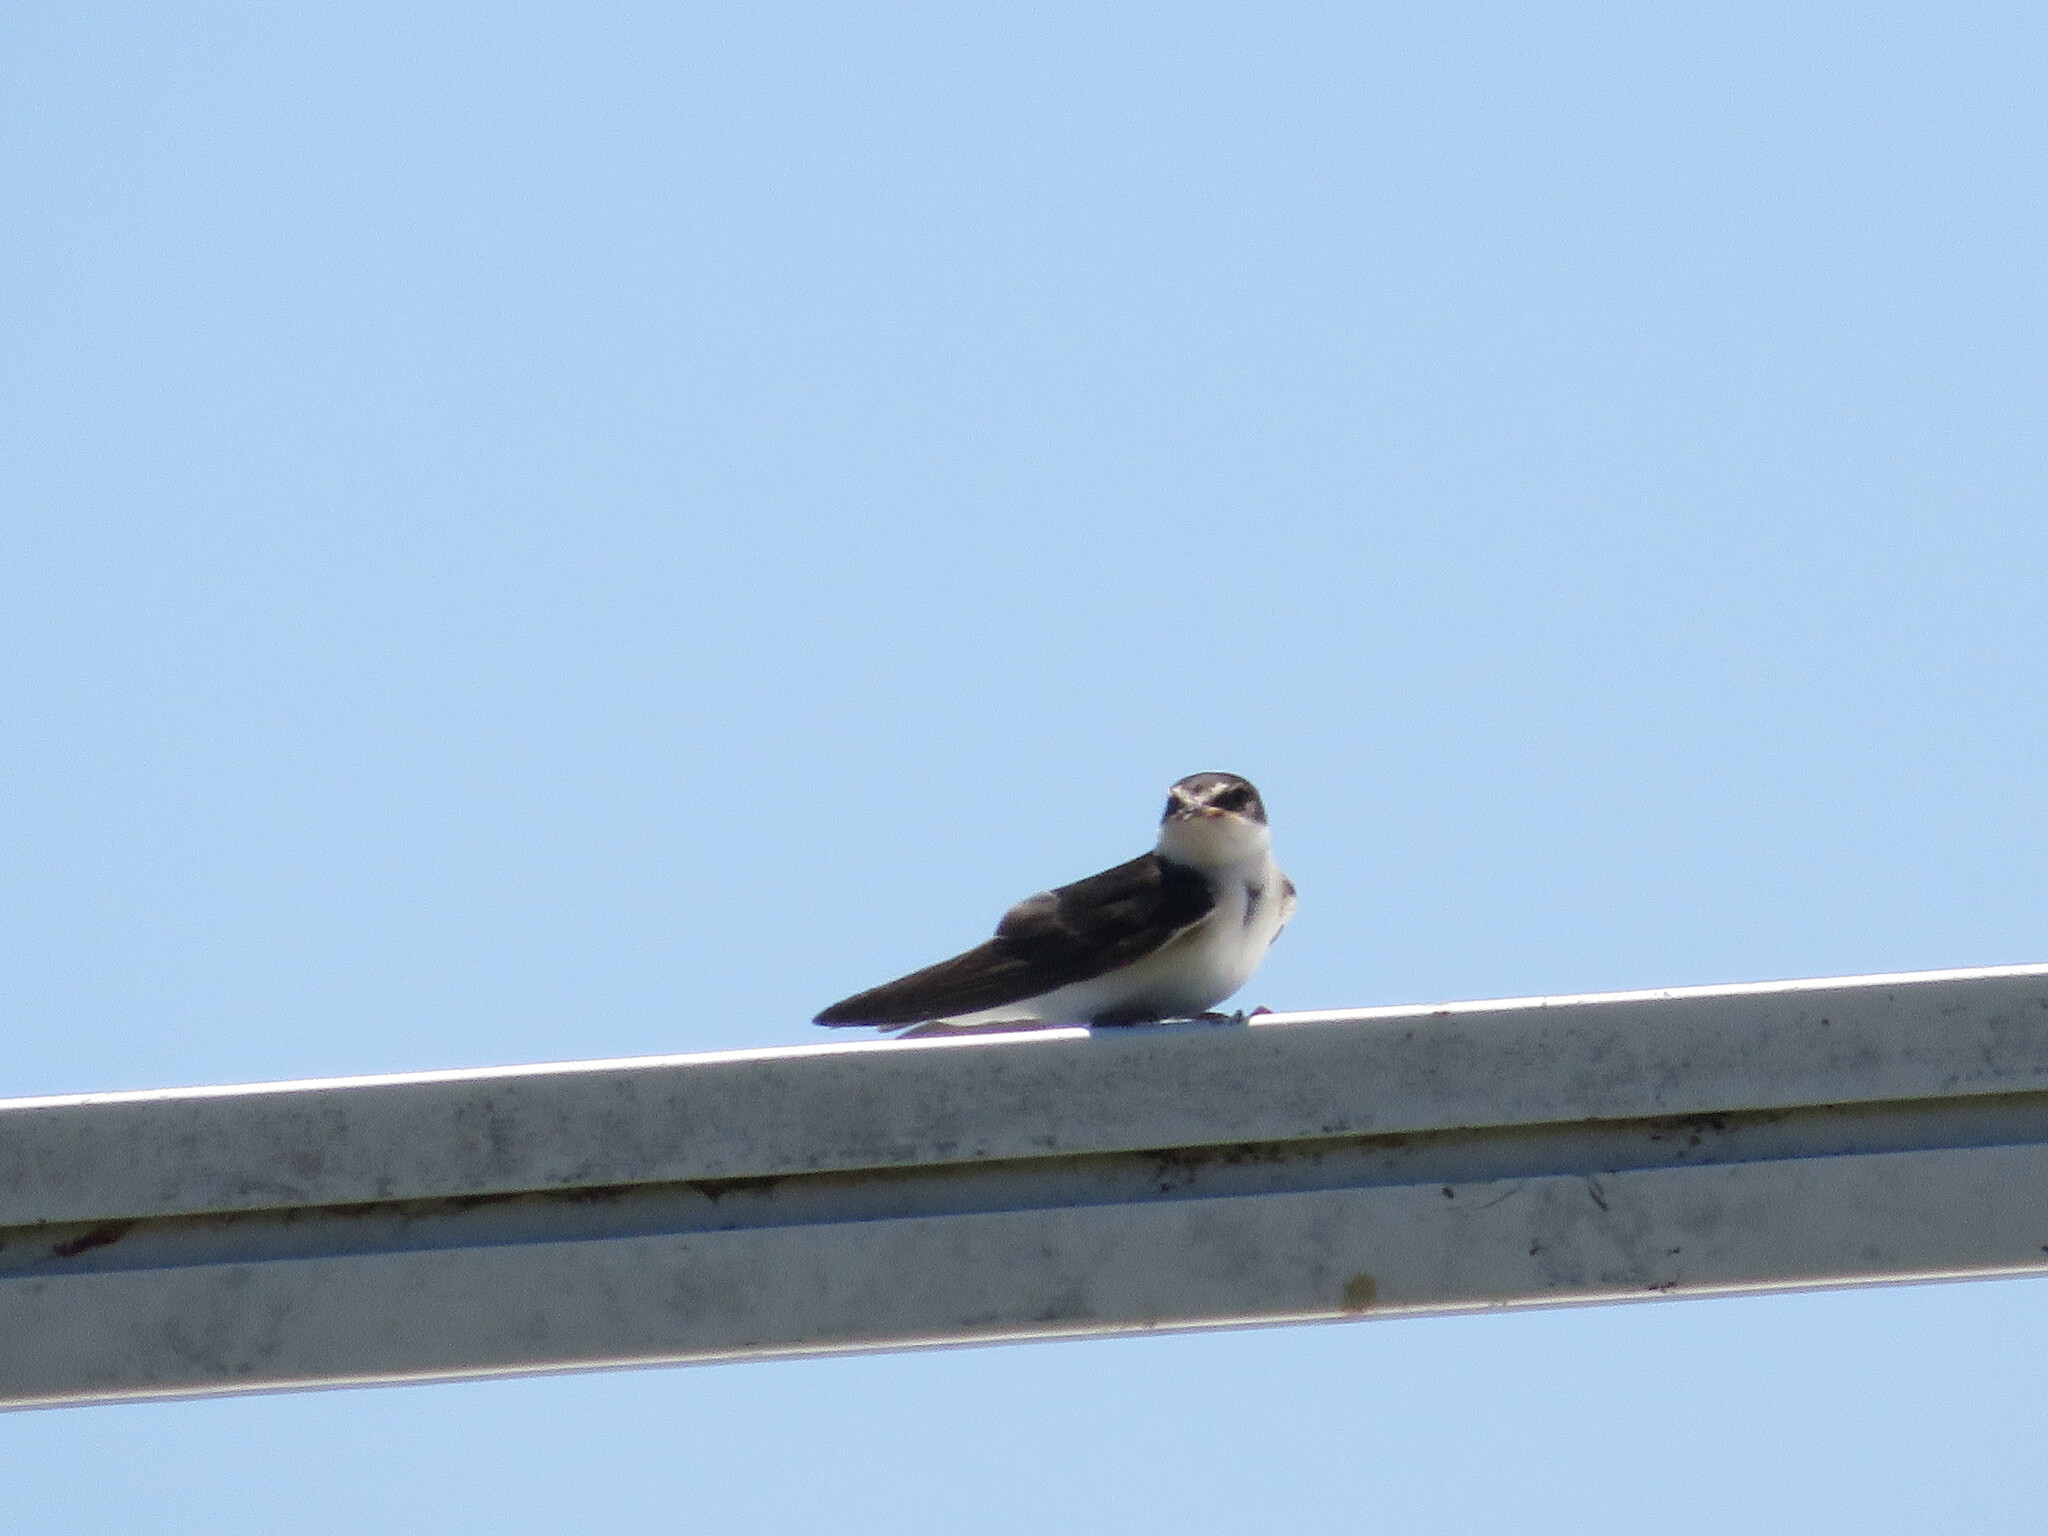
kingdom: Animalia
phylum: Chordata
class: Aves
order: Passeriformes
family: Hirundinidae
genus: Tachycineta
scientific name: Tachycineta leucorrhoa
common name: White-rumped swallow
